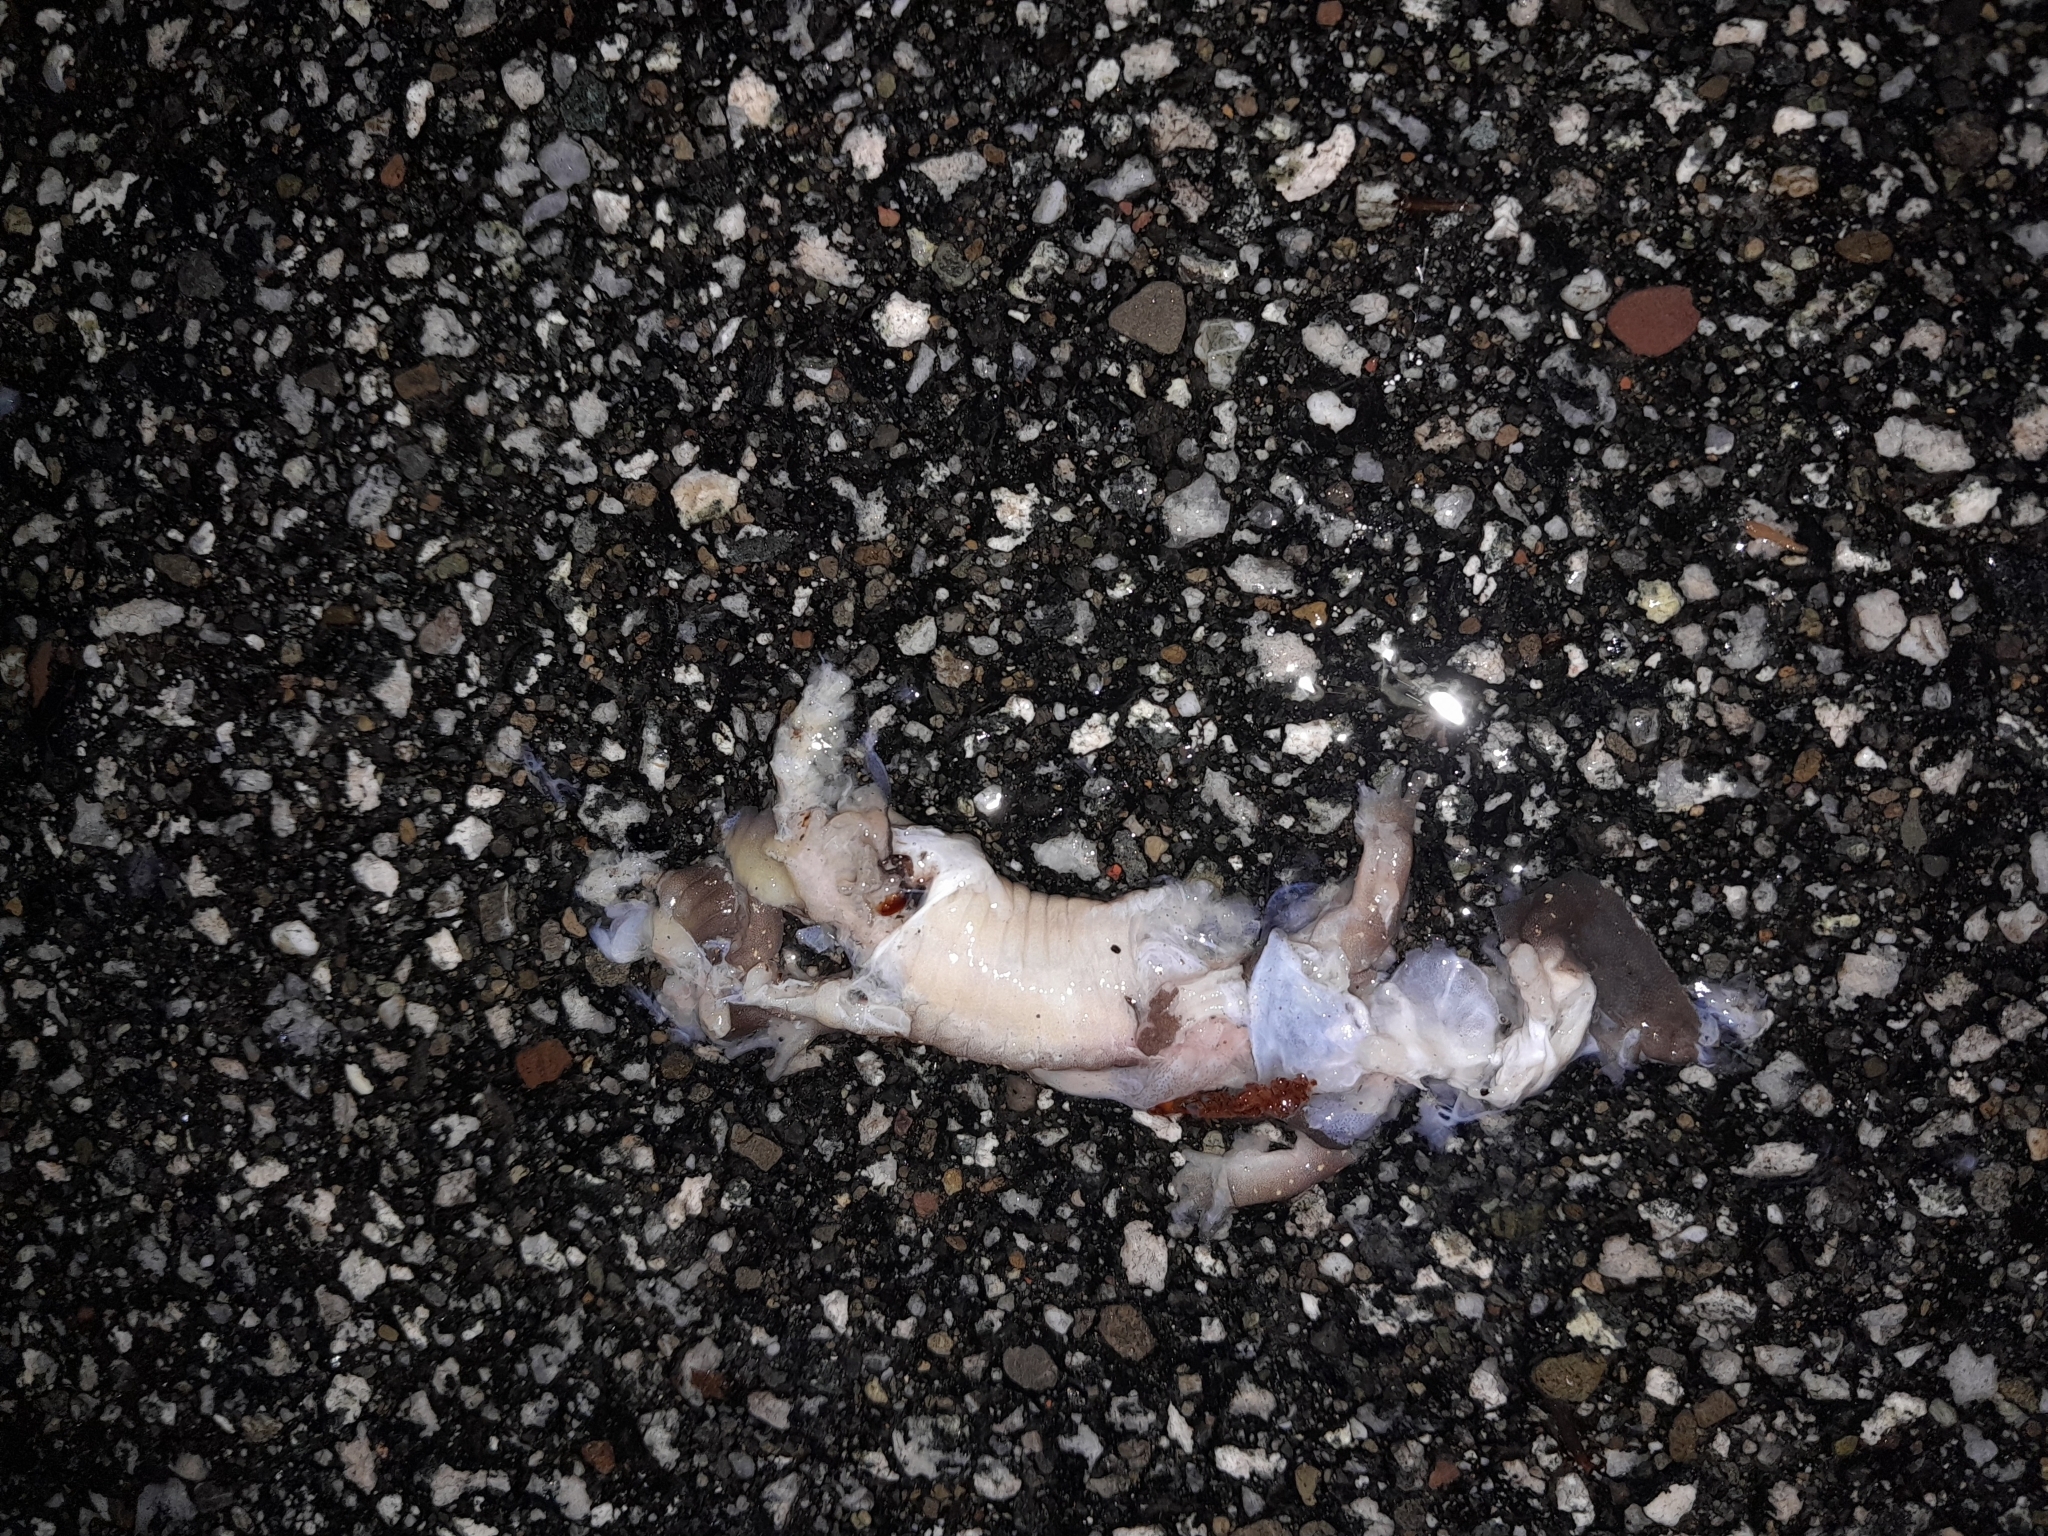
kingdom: Animalia
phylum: Chordata
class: Amphibia
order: Caudata
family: Plethodontidae
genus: Aneides
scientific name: Aneides lugubris
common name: Arboreal salamander
